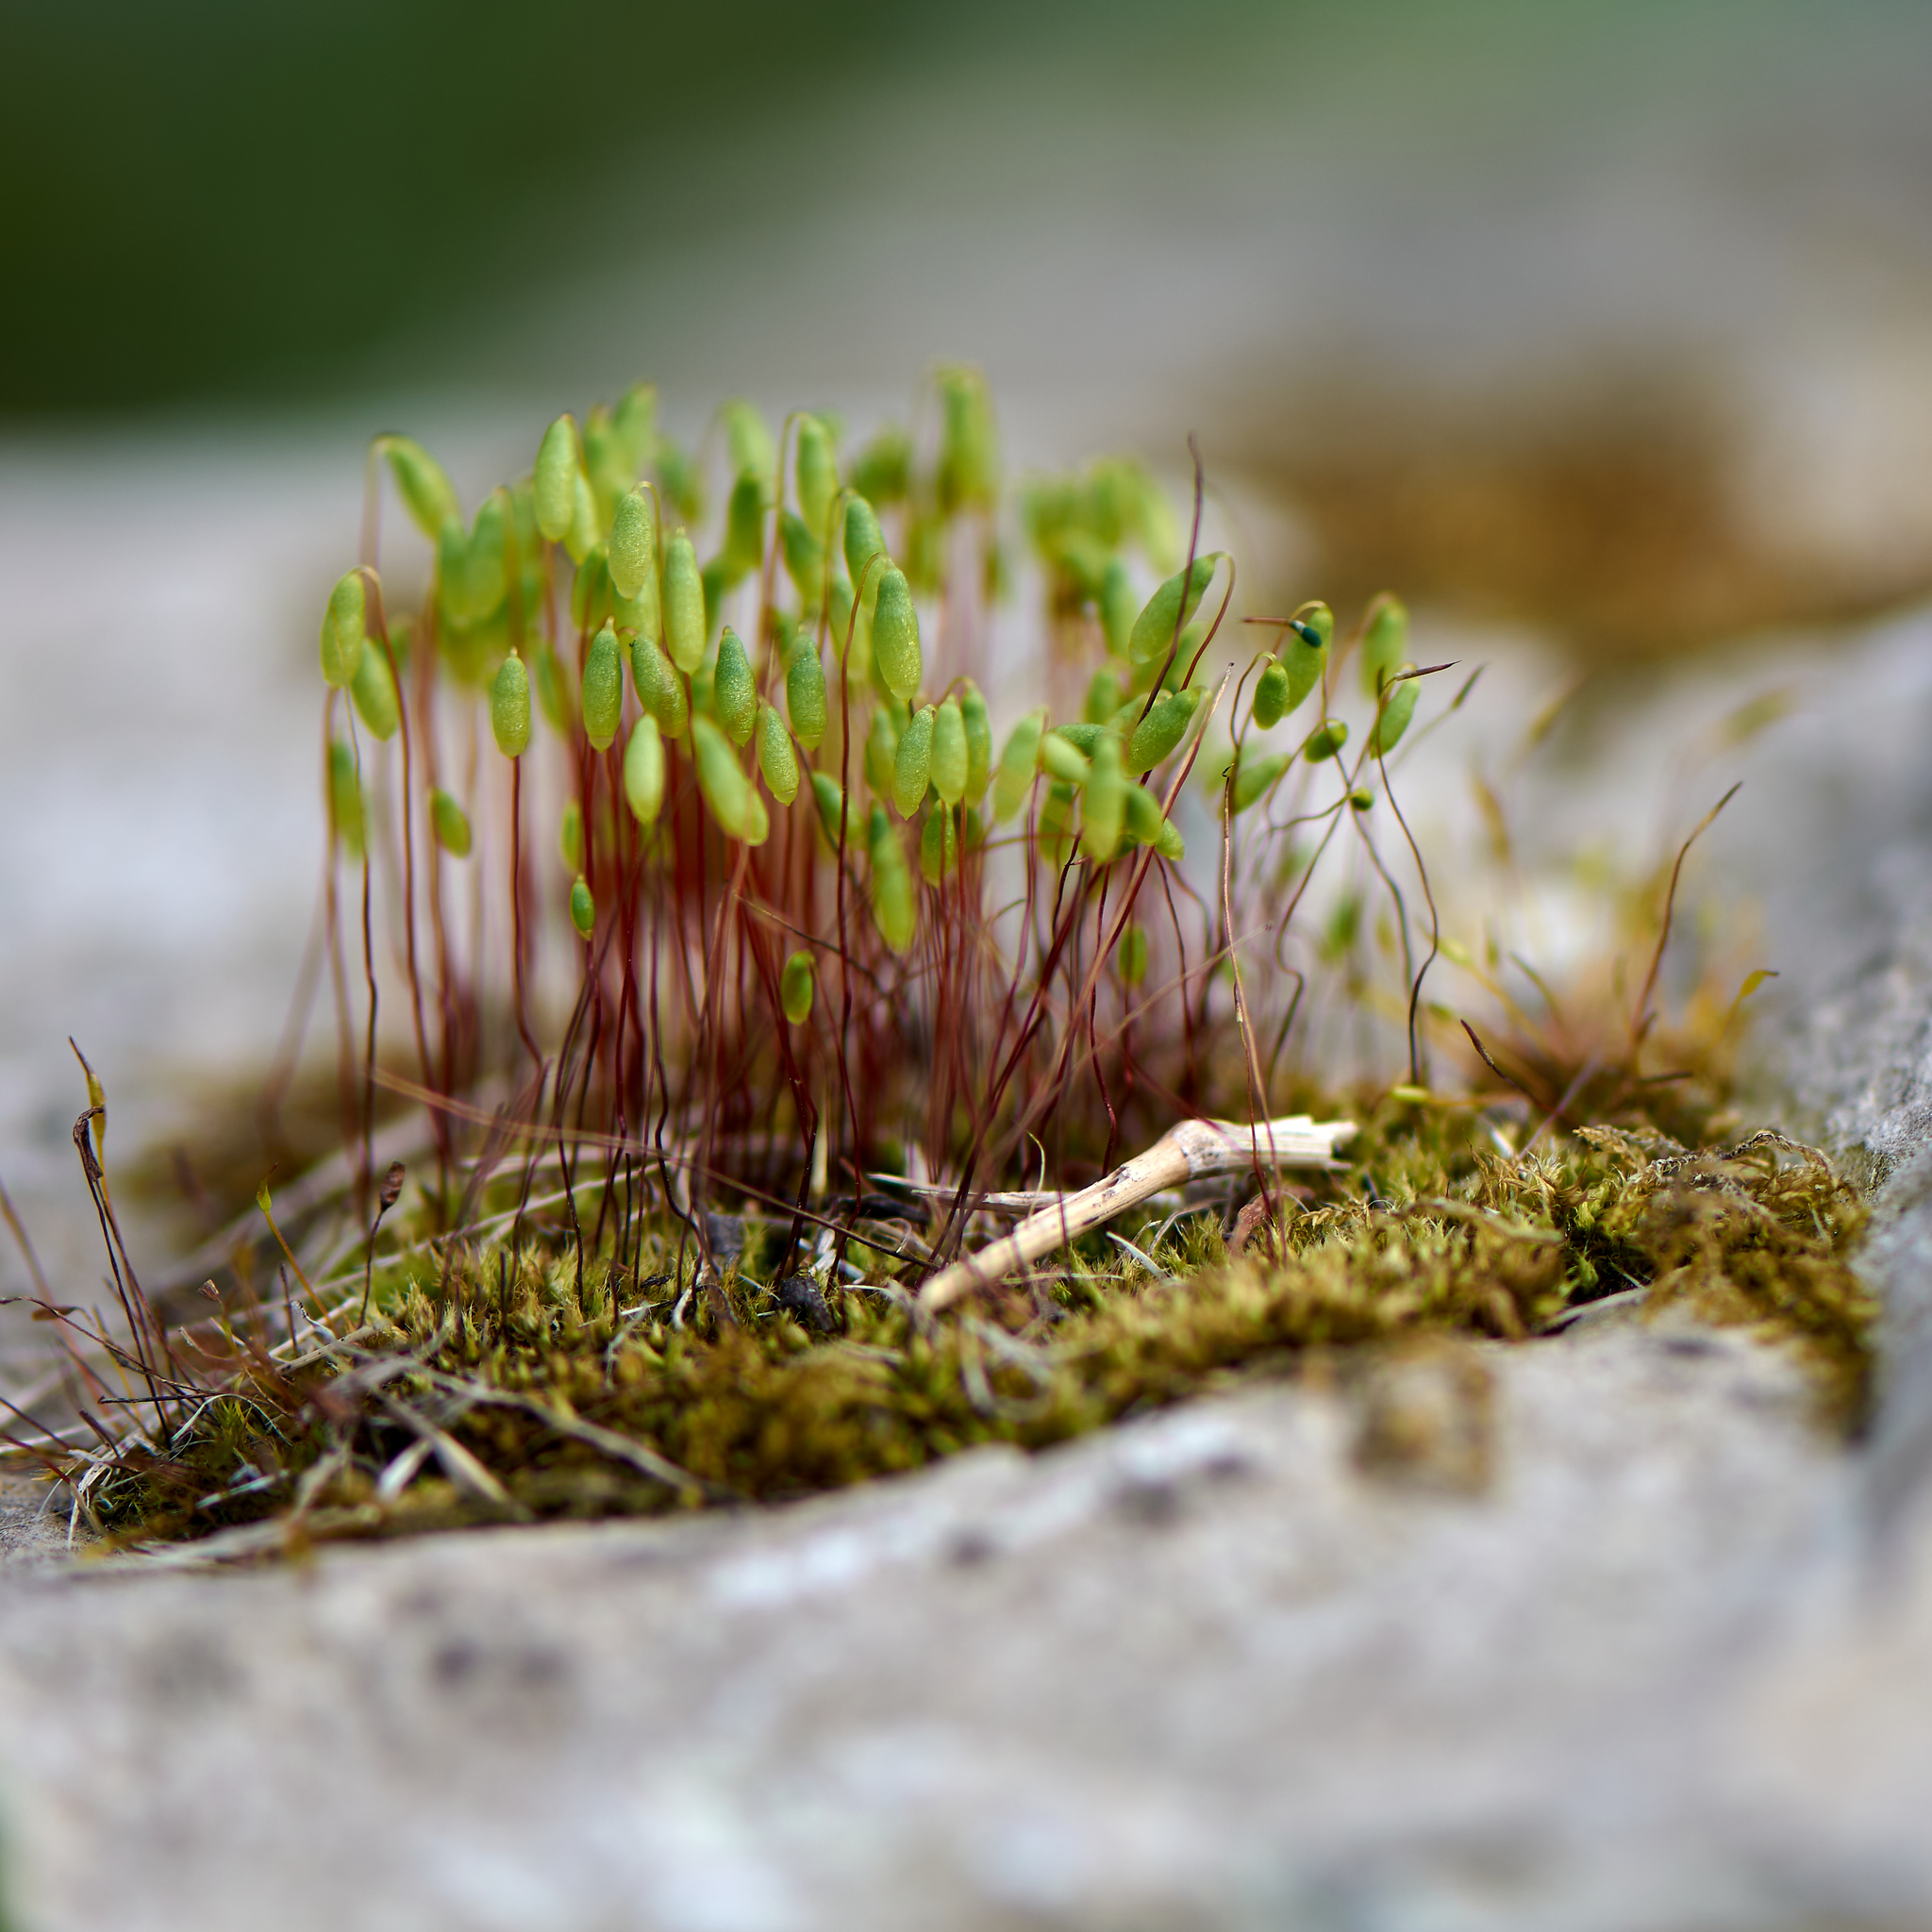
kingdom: Plantae
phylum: Bryophyta
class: Bryopsida
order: Bryales
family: Mniaceae
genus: Pohlia
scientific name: Pohlia nutans
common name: Nodding thread-moss
